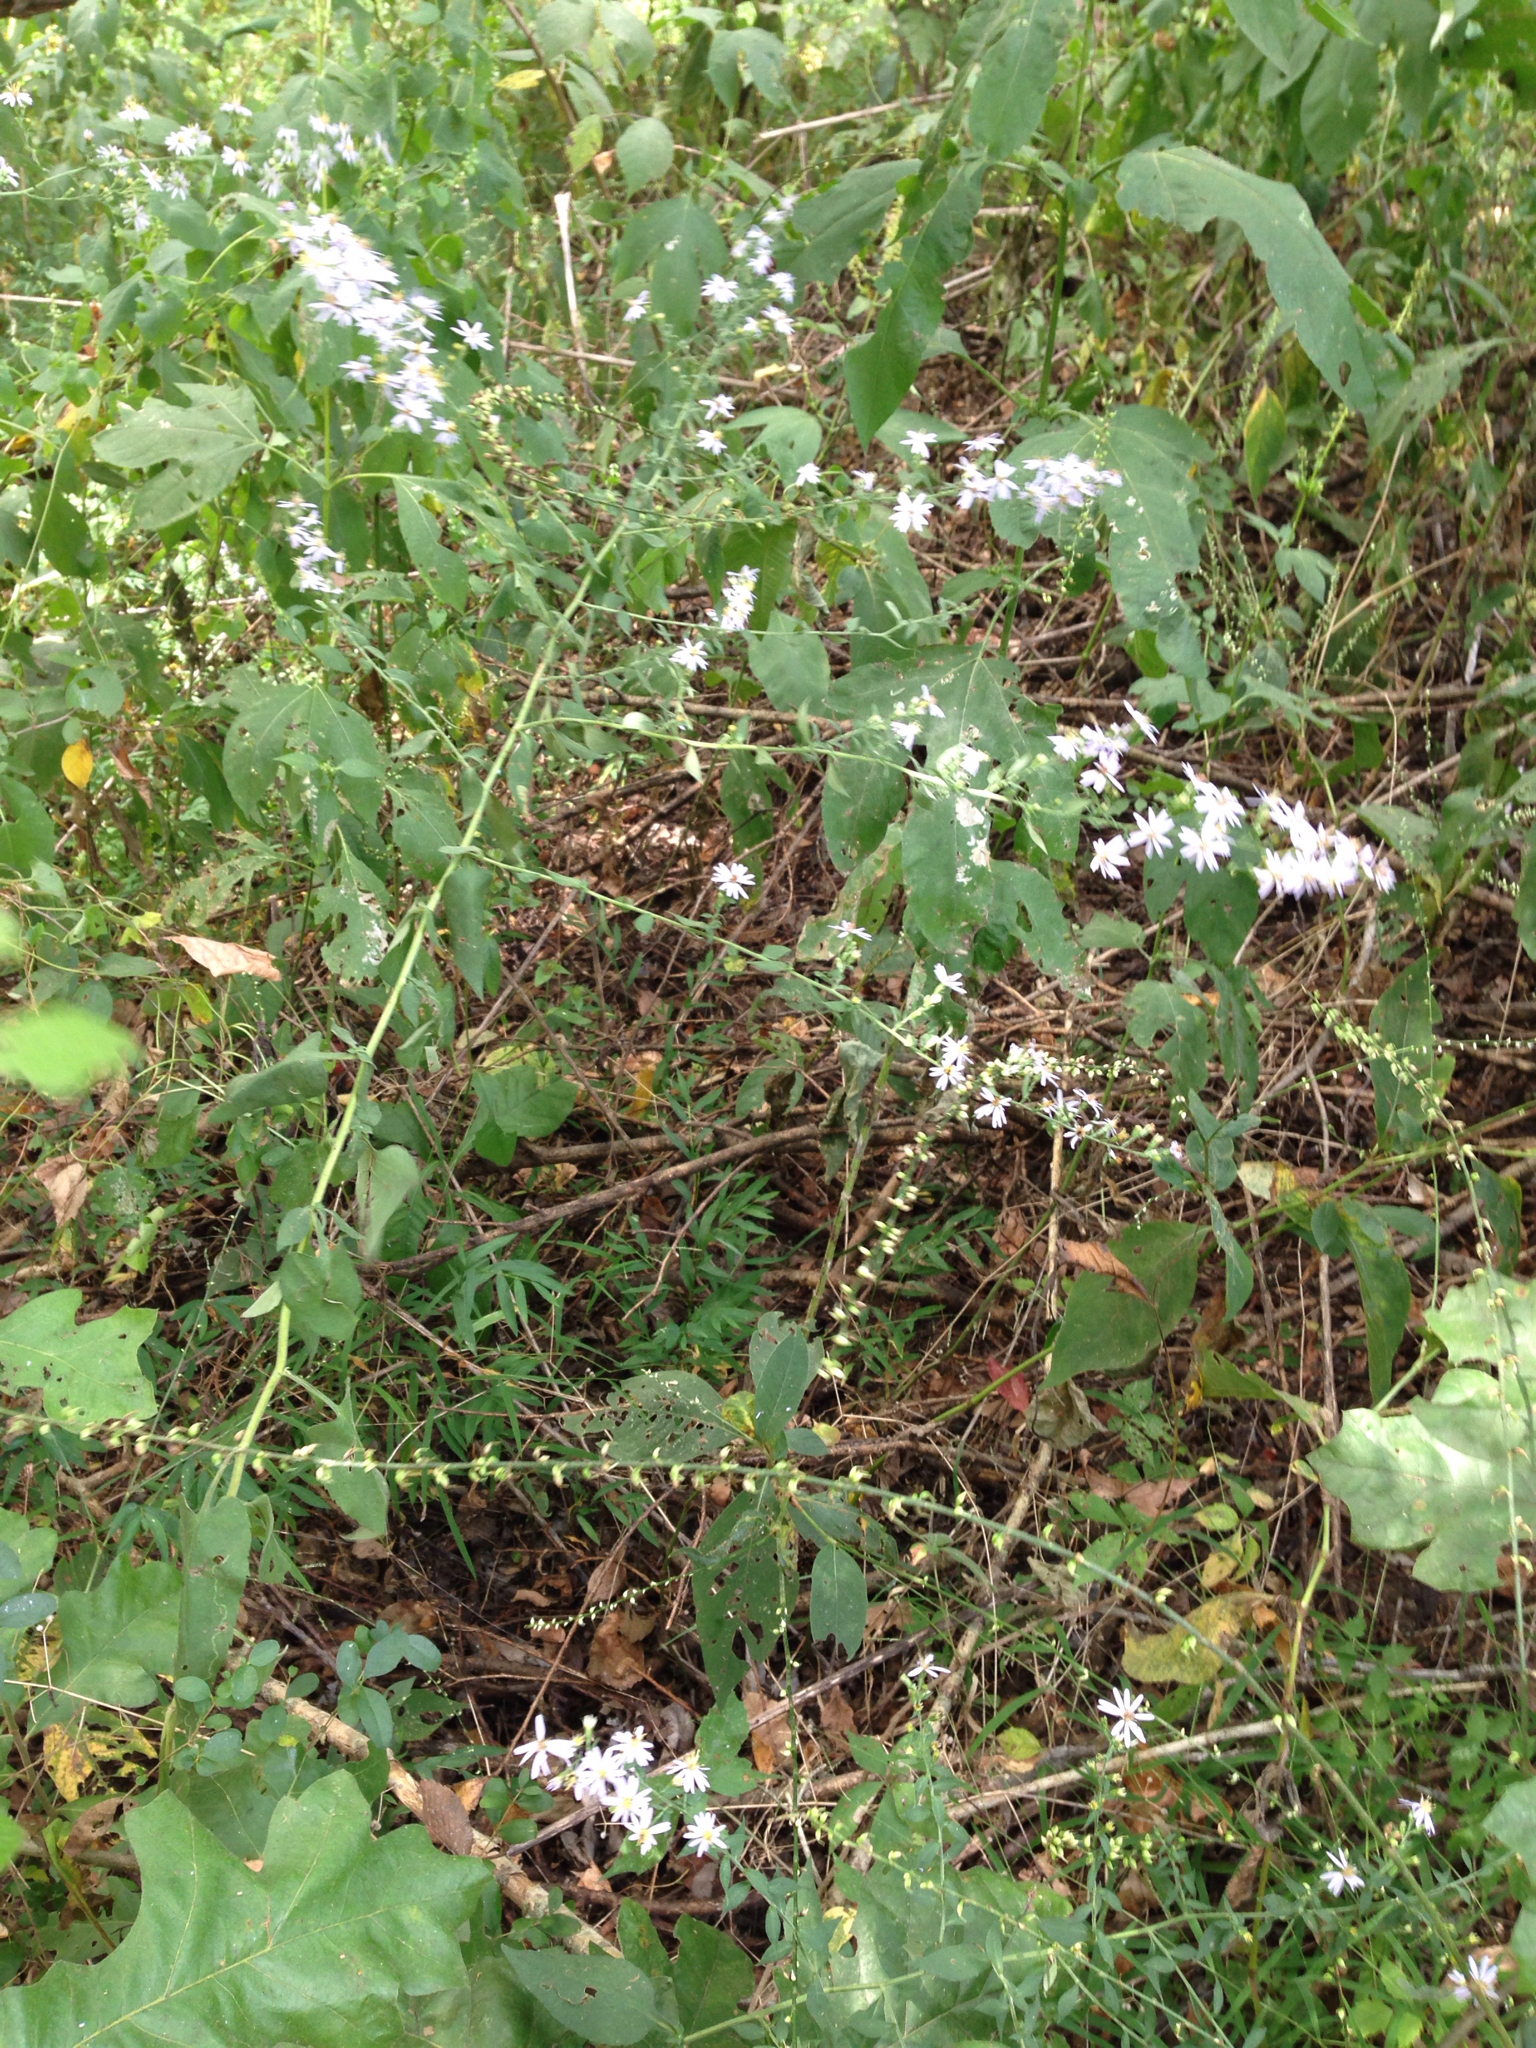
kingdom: Plantae
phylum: Tracheophyta
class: Magnoliopsida
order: Asterales
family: Asteraceae
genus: Symphyotrichum
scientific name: Symphyotrichum cordifolium
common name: Beeweed
